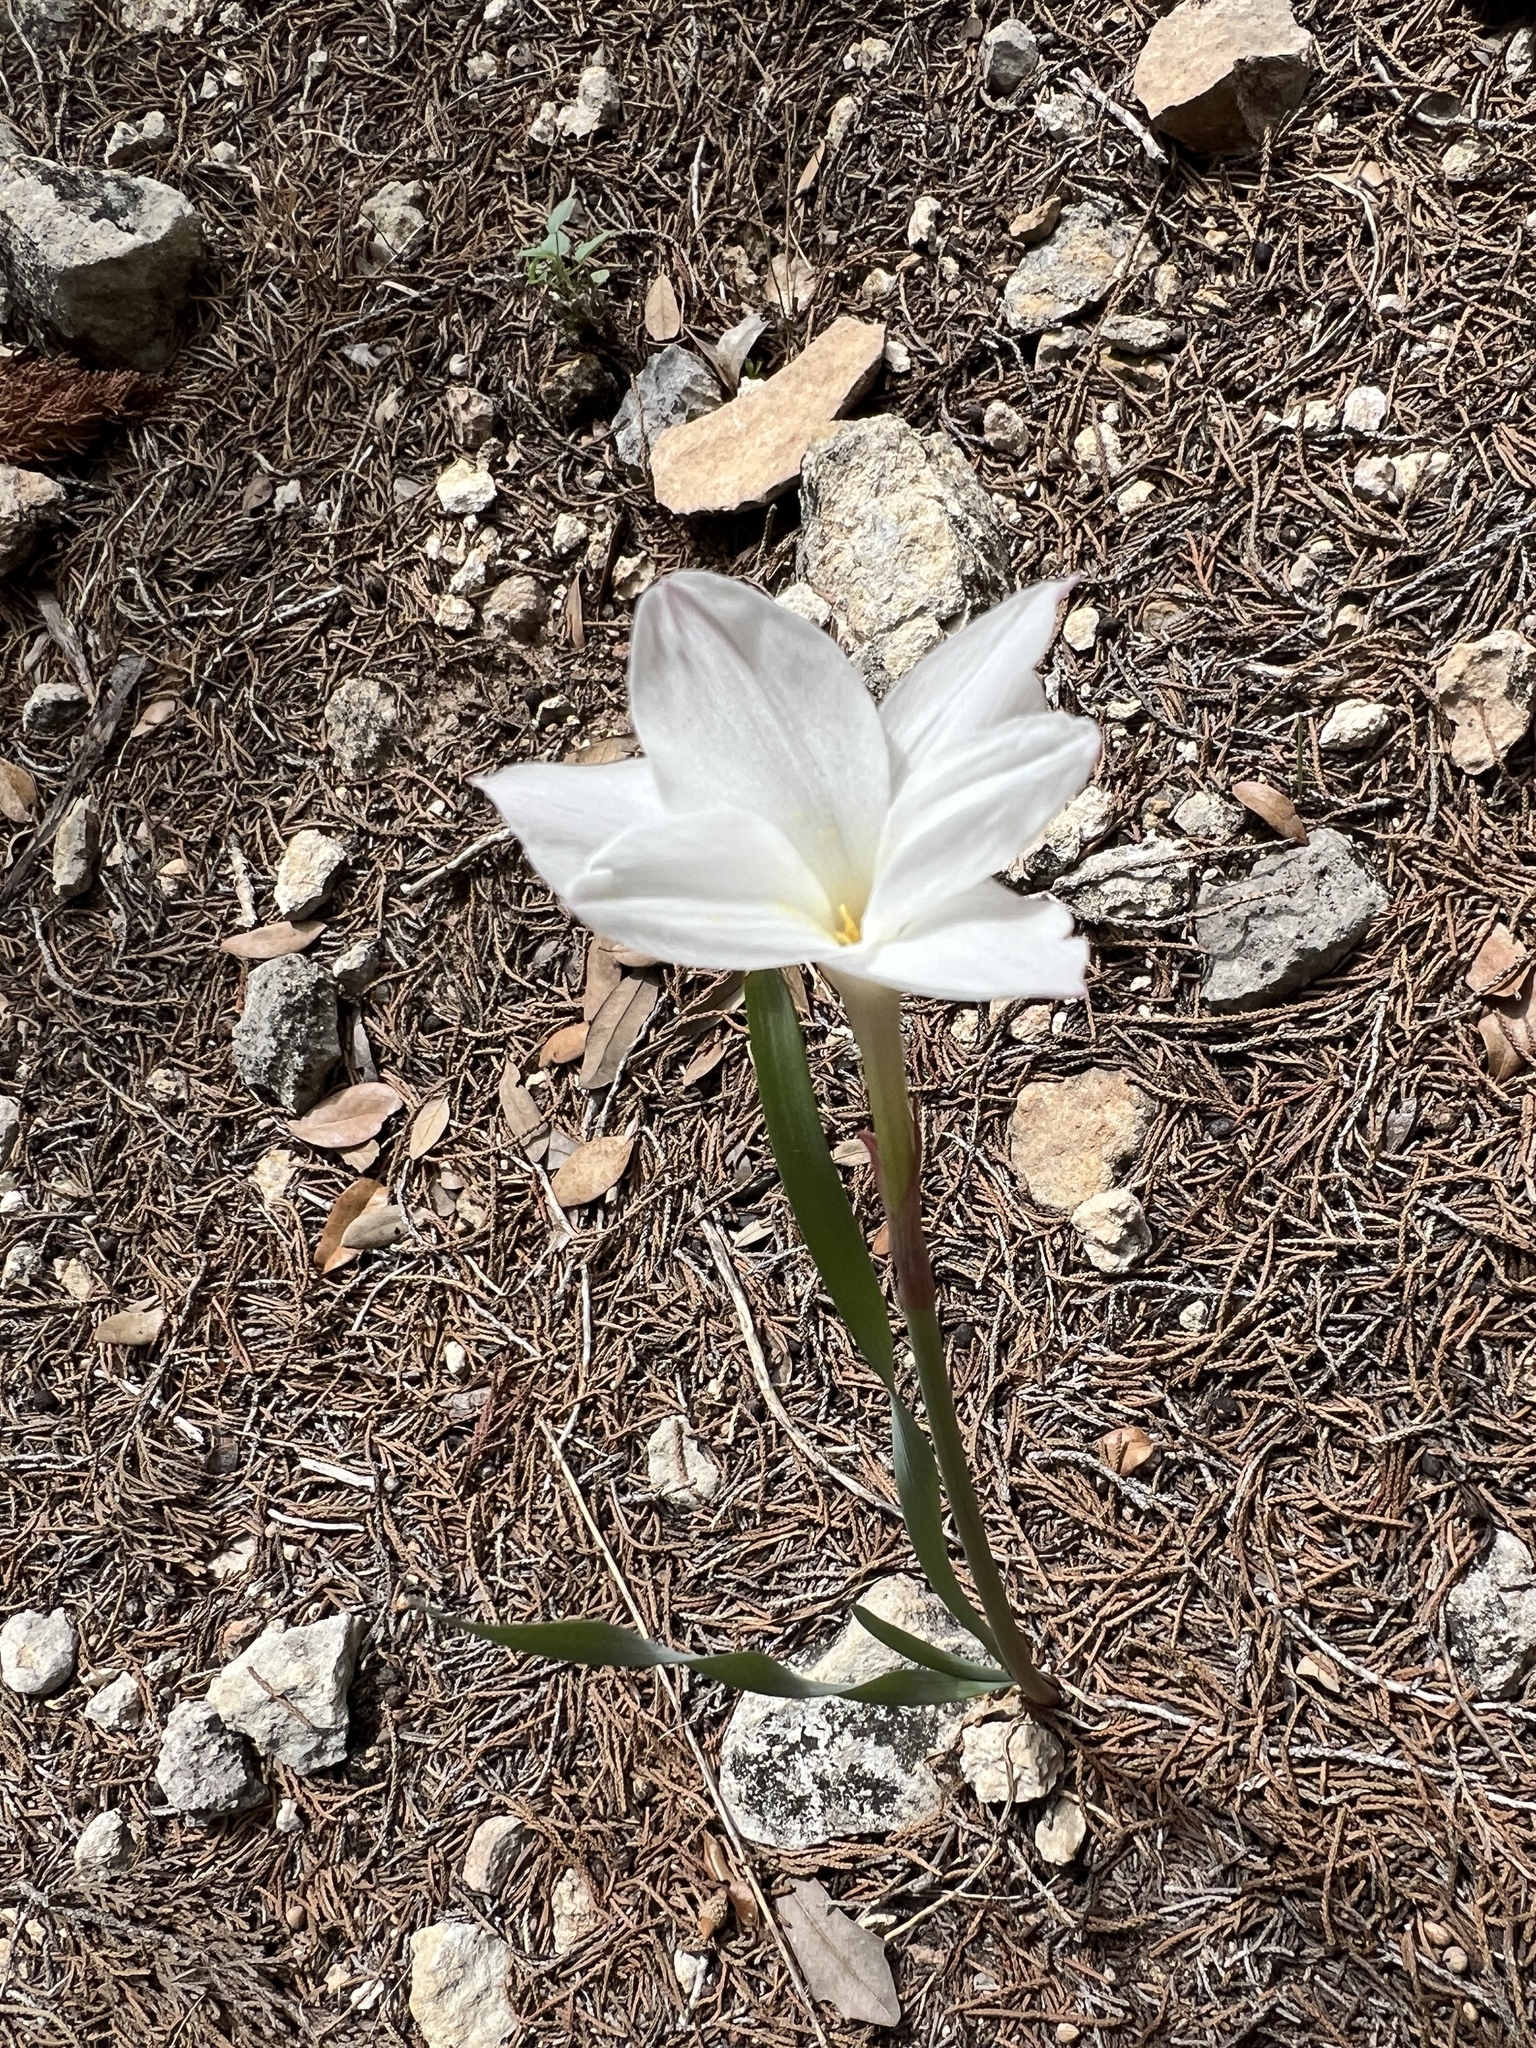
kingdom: Plantae
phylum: Tracheophyta
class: Liliopsida
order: Asparagales
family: Amaryllidaceae
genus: Zephyranthes
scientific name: Zephyranthes drummondii
